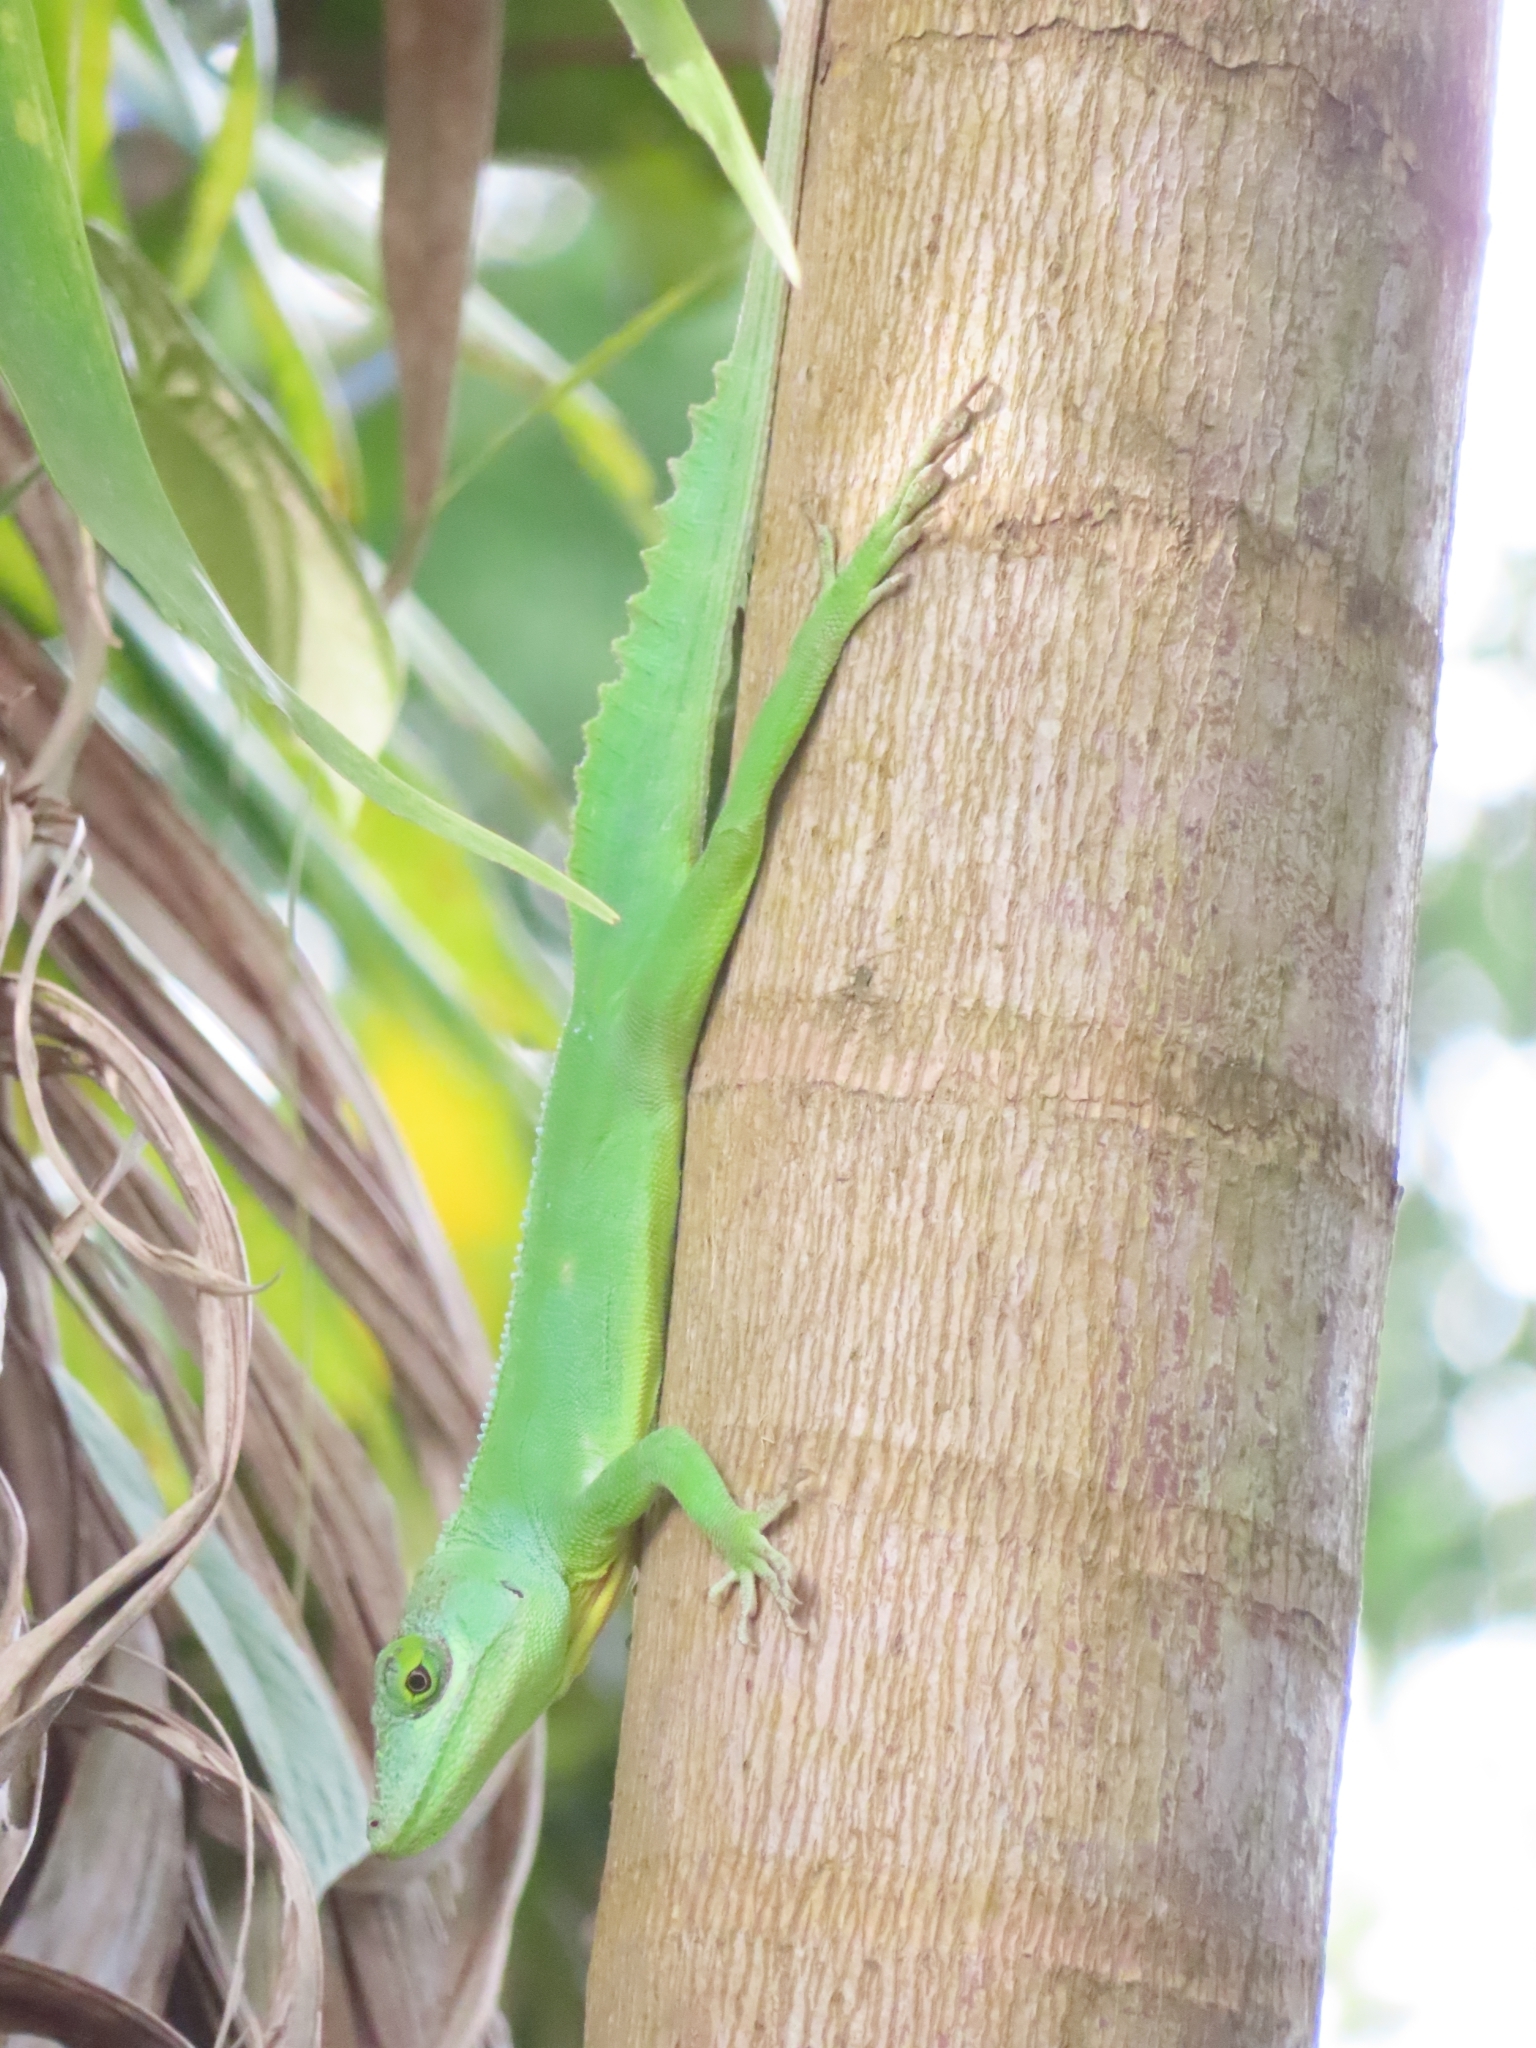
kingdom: Animalia
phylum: Chordata
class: Squamata
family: Dactyloidae
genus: Anolis
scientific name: Anolis cuvieri
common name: Cuvier's anole
